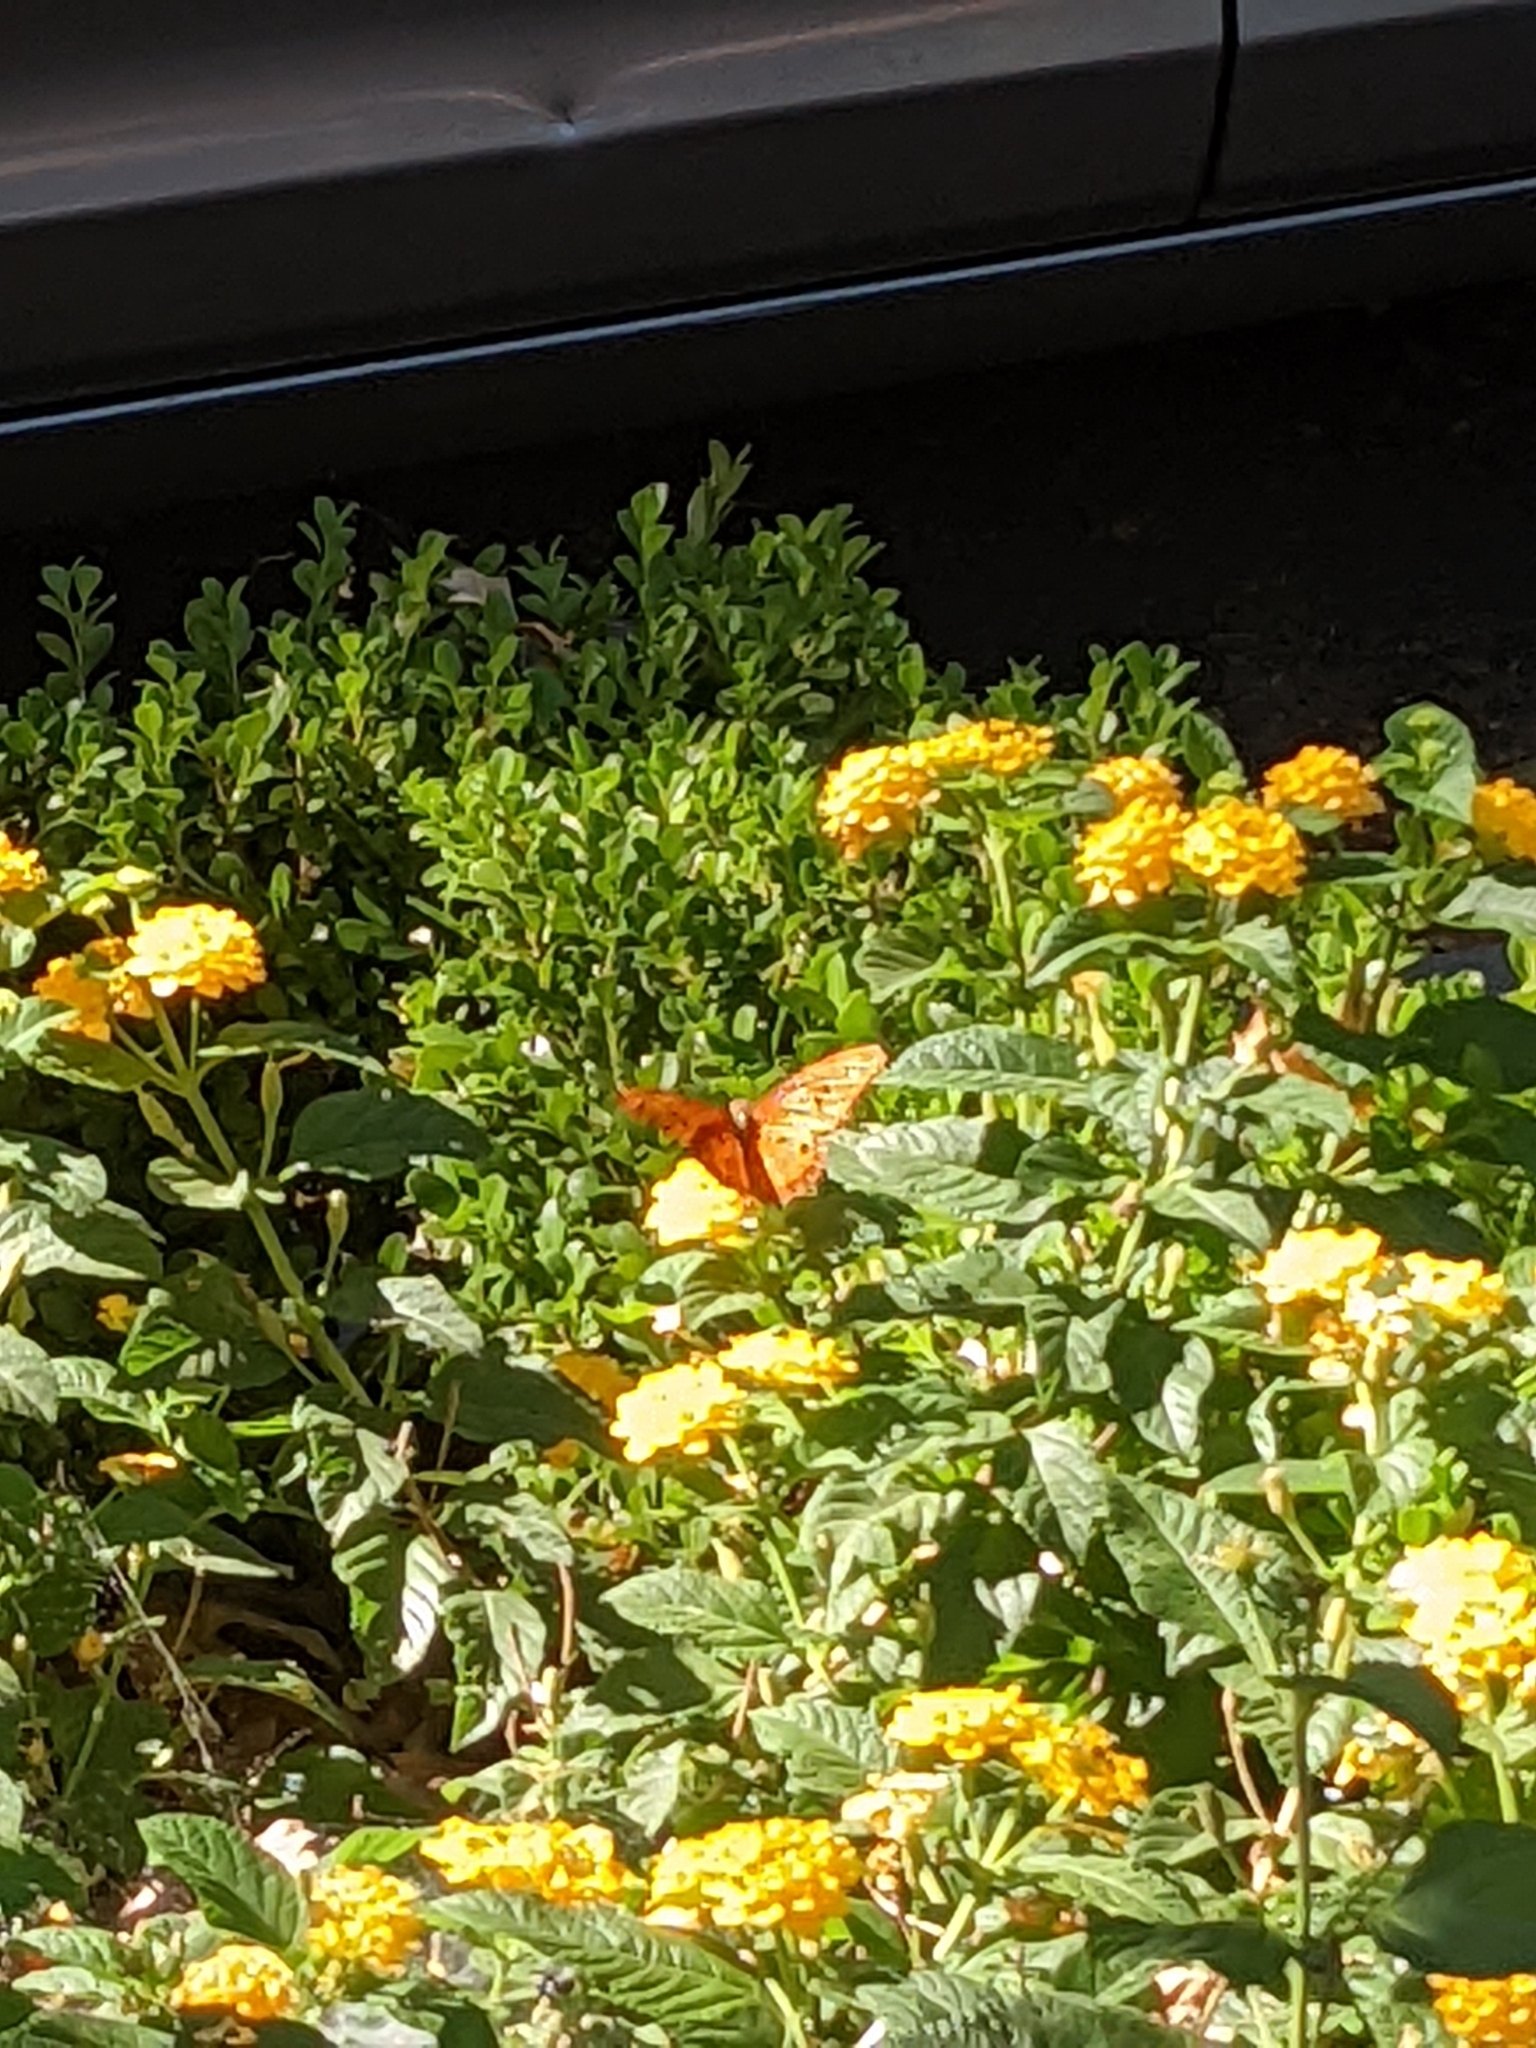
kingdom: Animalia
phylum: Arthropoda
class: Insecta
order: Lepidoptera
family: Nymphalidae
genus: Dione
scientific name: Dione vanillae
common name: Gulf fritillary
